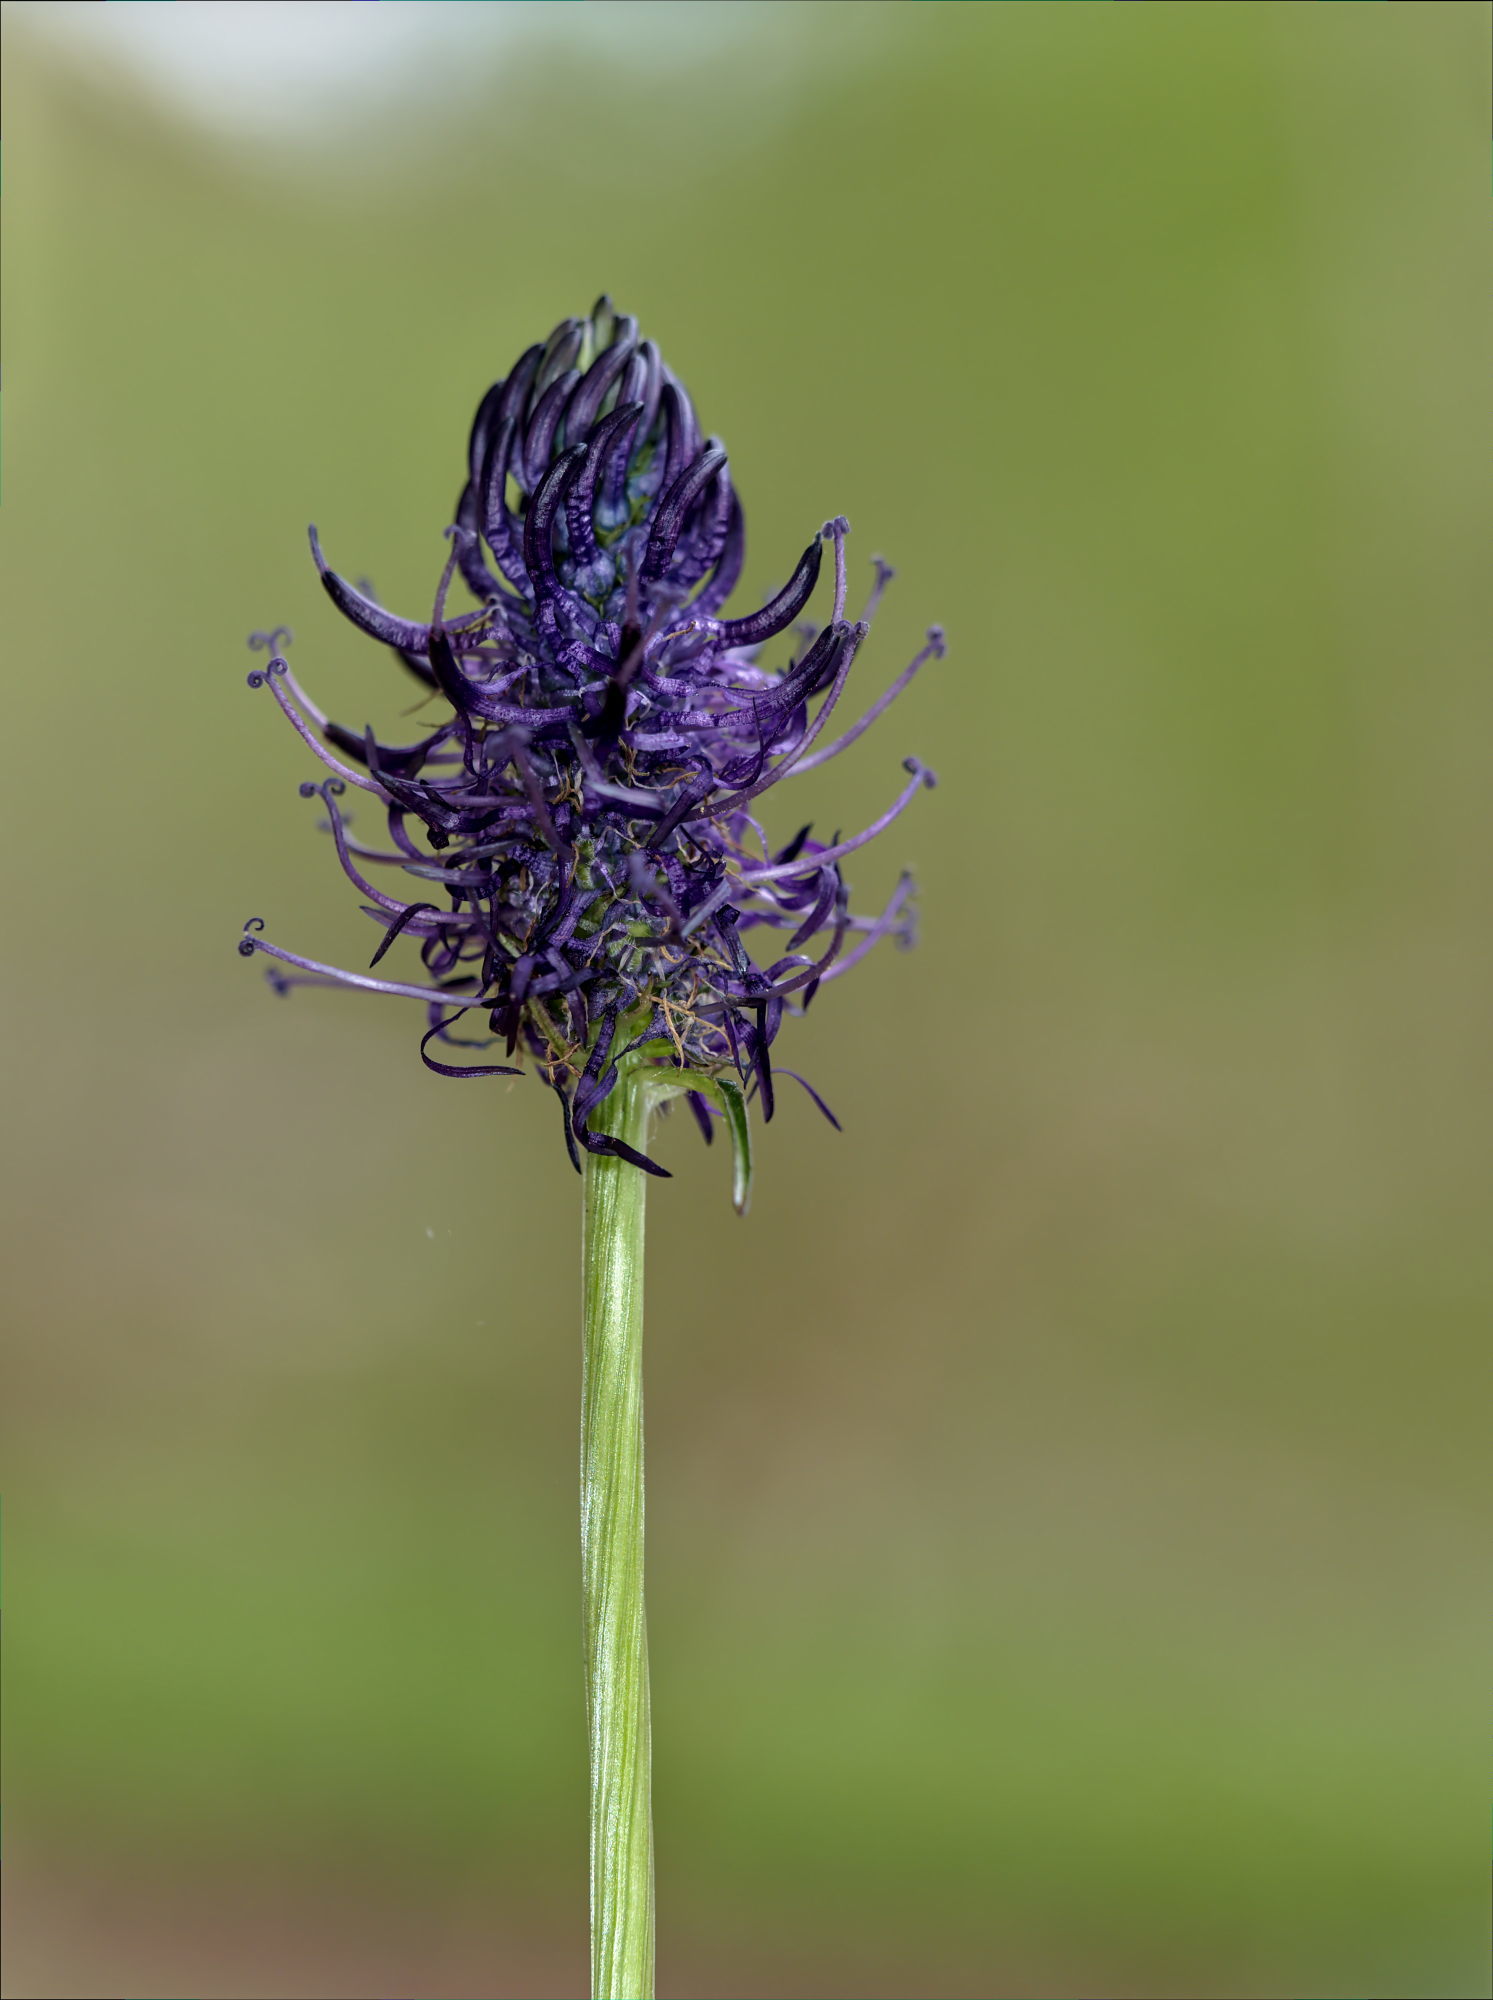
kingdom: Plantae
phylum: Tracheophyta
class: Magnoliopsida
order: Asterales
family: Campanulaceae
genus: Phyteuma
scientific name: Phyteuma nigrum
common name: Black rampion
